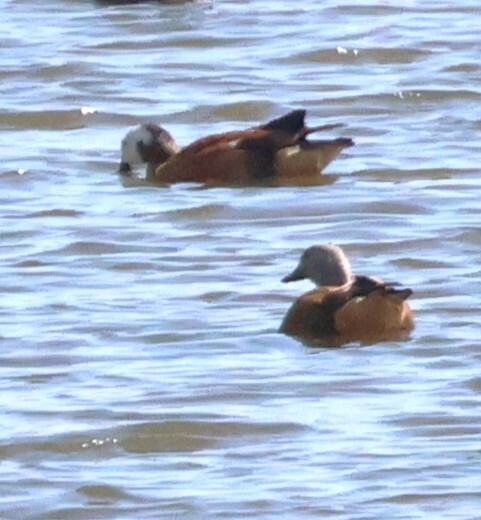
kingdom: Animalia
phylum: Chordata
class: Aves
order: Anseriformes
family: Anatidae
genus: Tadorna
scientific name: Tadorna cana
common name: South african shelduck
